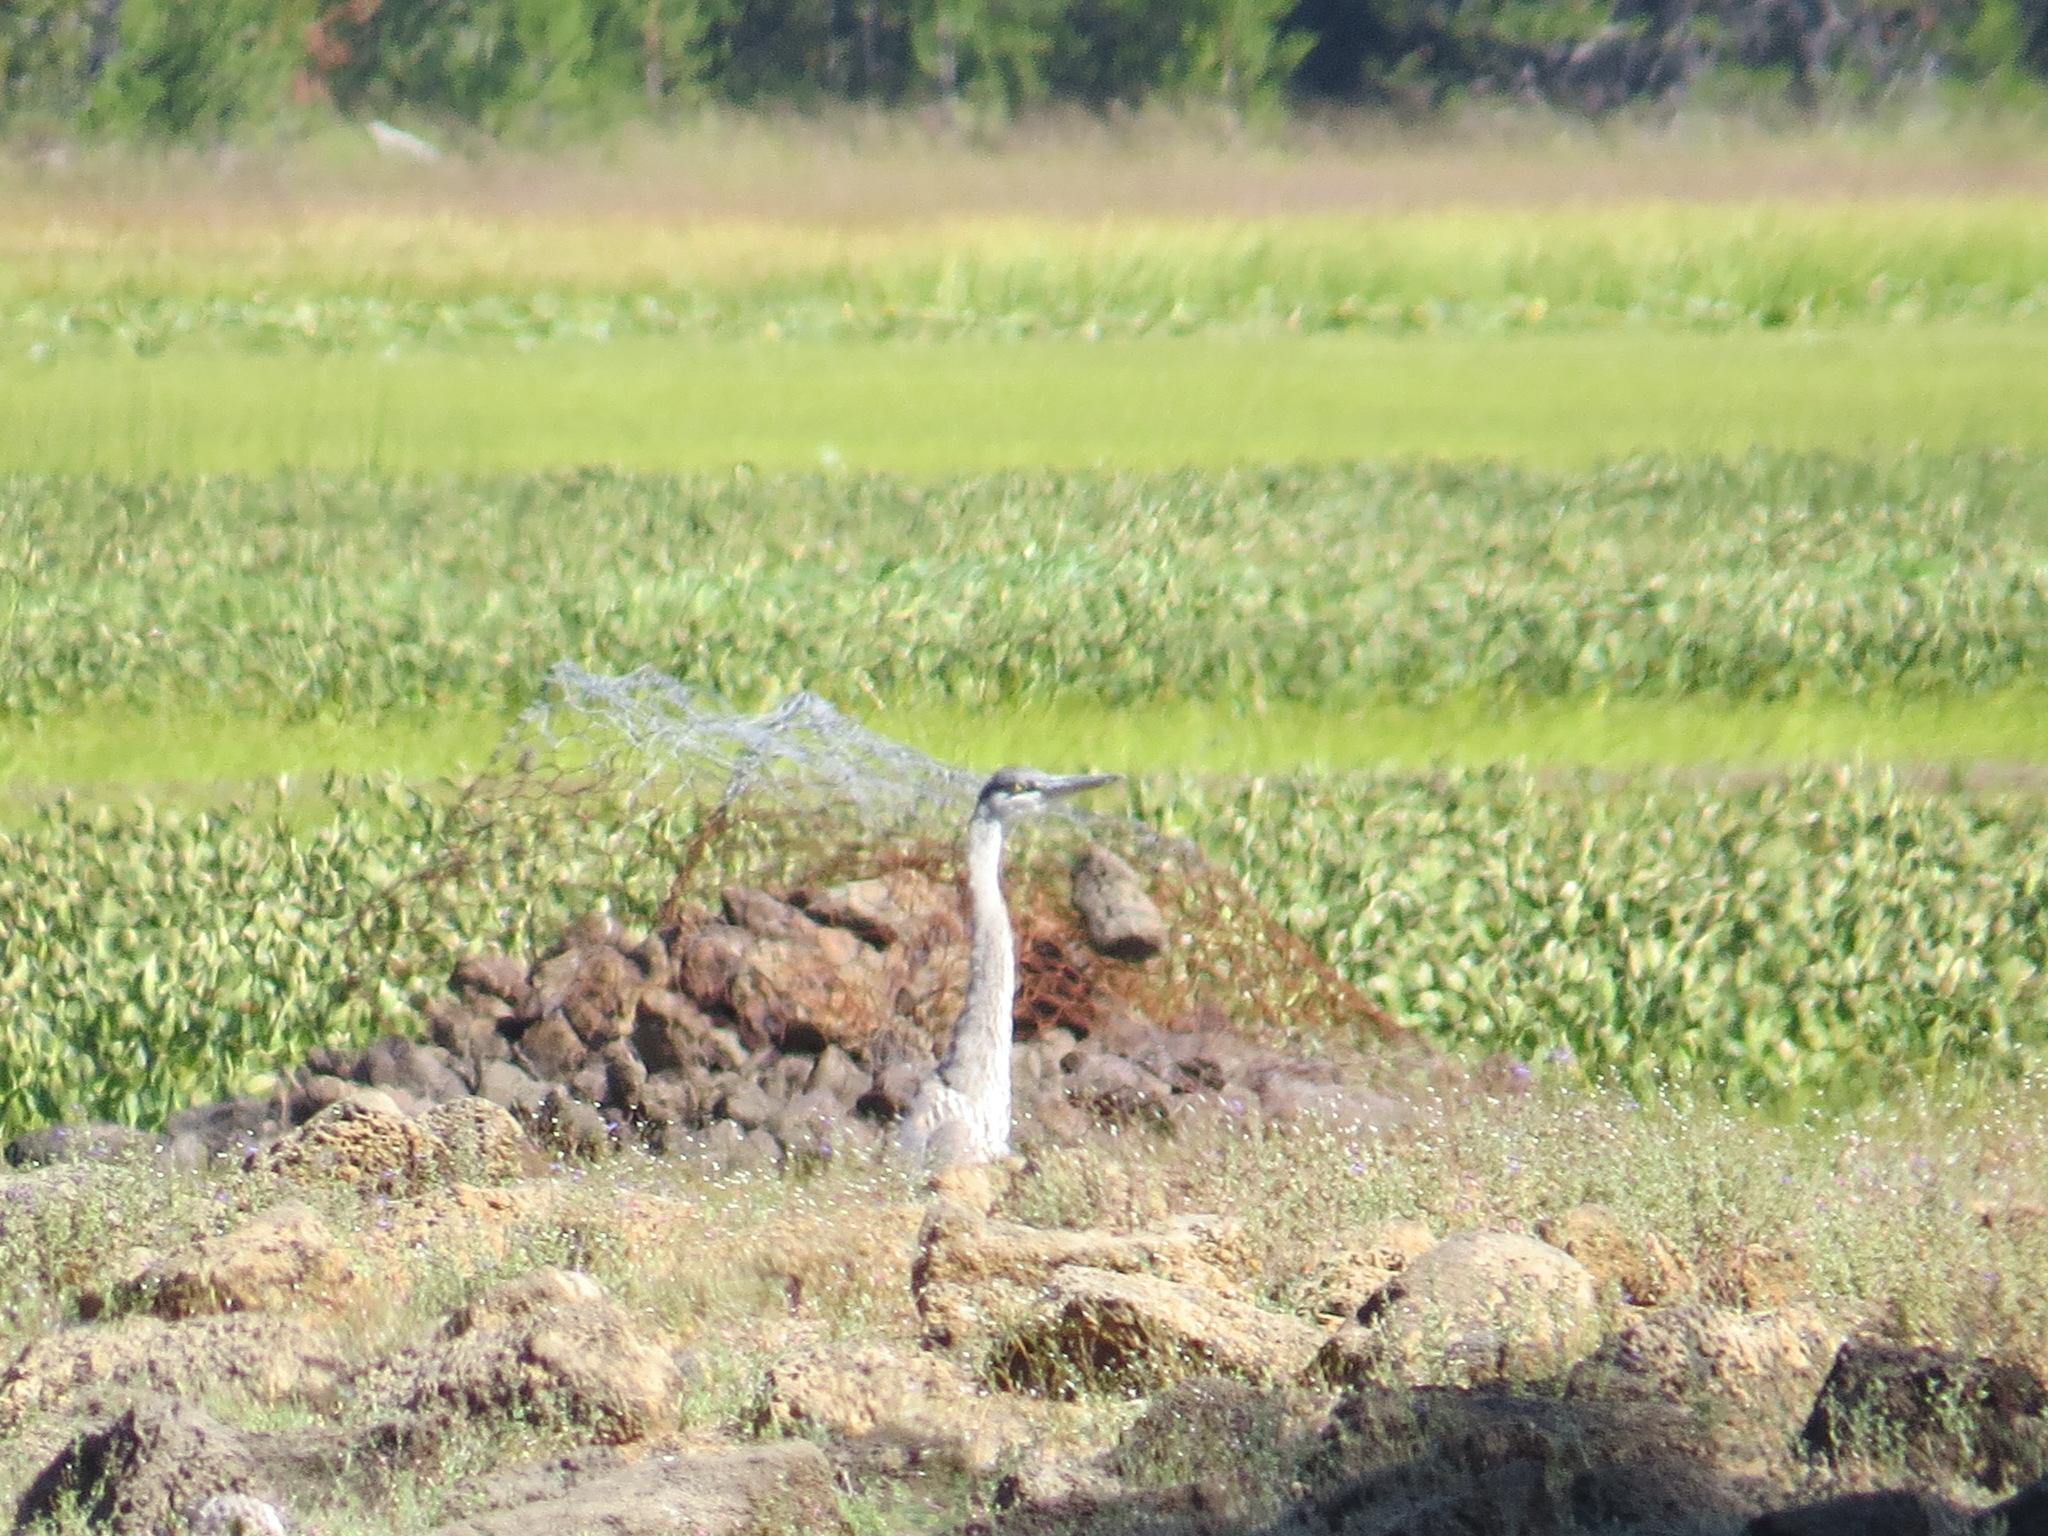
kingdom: Animalia
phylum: Chordata
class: Aves
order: Pelecaniformes
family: Ardeidae
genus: Ardea
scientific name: Ardea herodias
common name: Great blue heron
